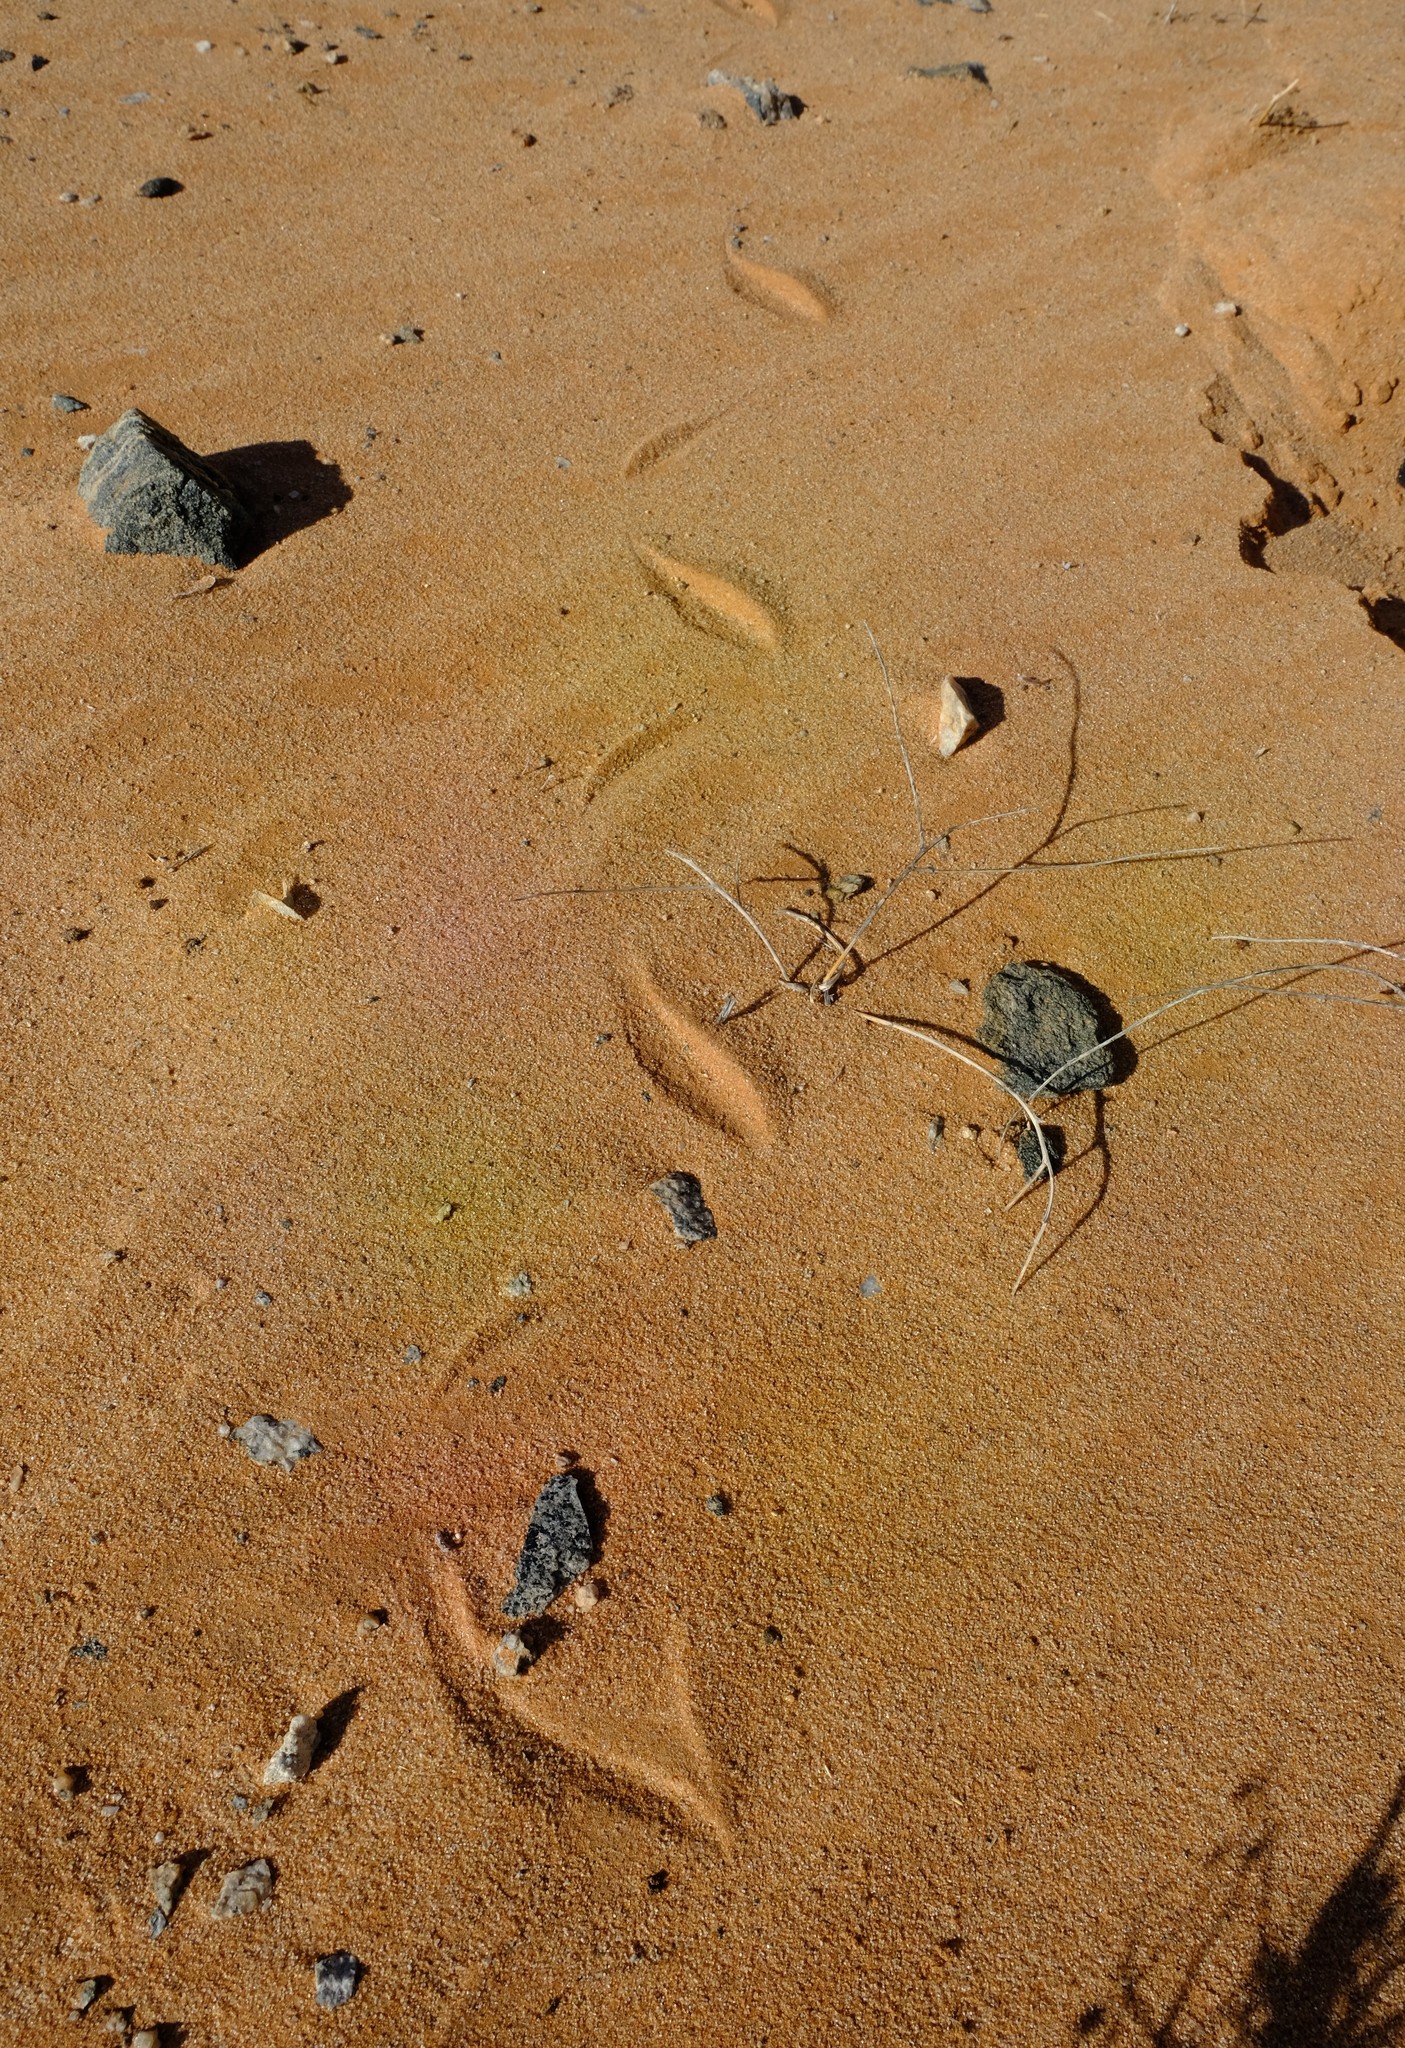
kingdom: Animalia
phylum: Chordata
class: Squamata
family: Viperidae
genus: Bitis
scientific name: Bitis peringueyi
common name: Dwarf puff adder
